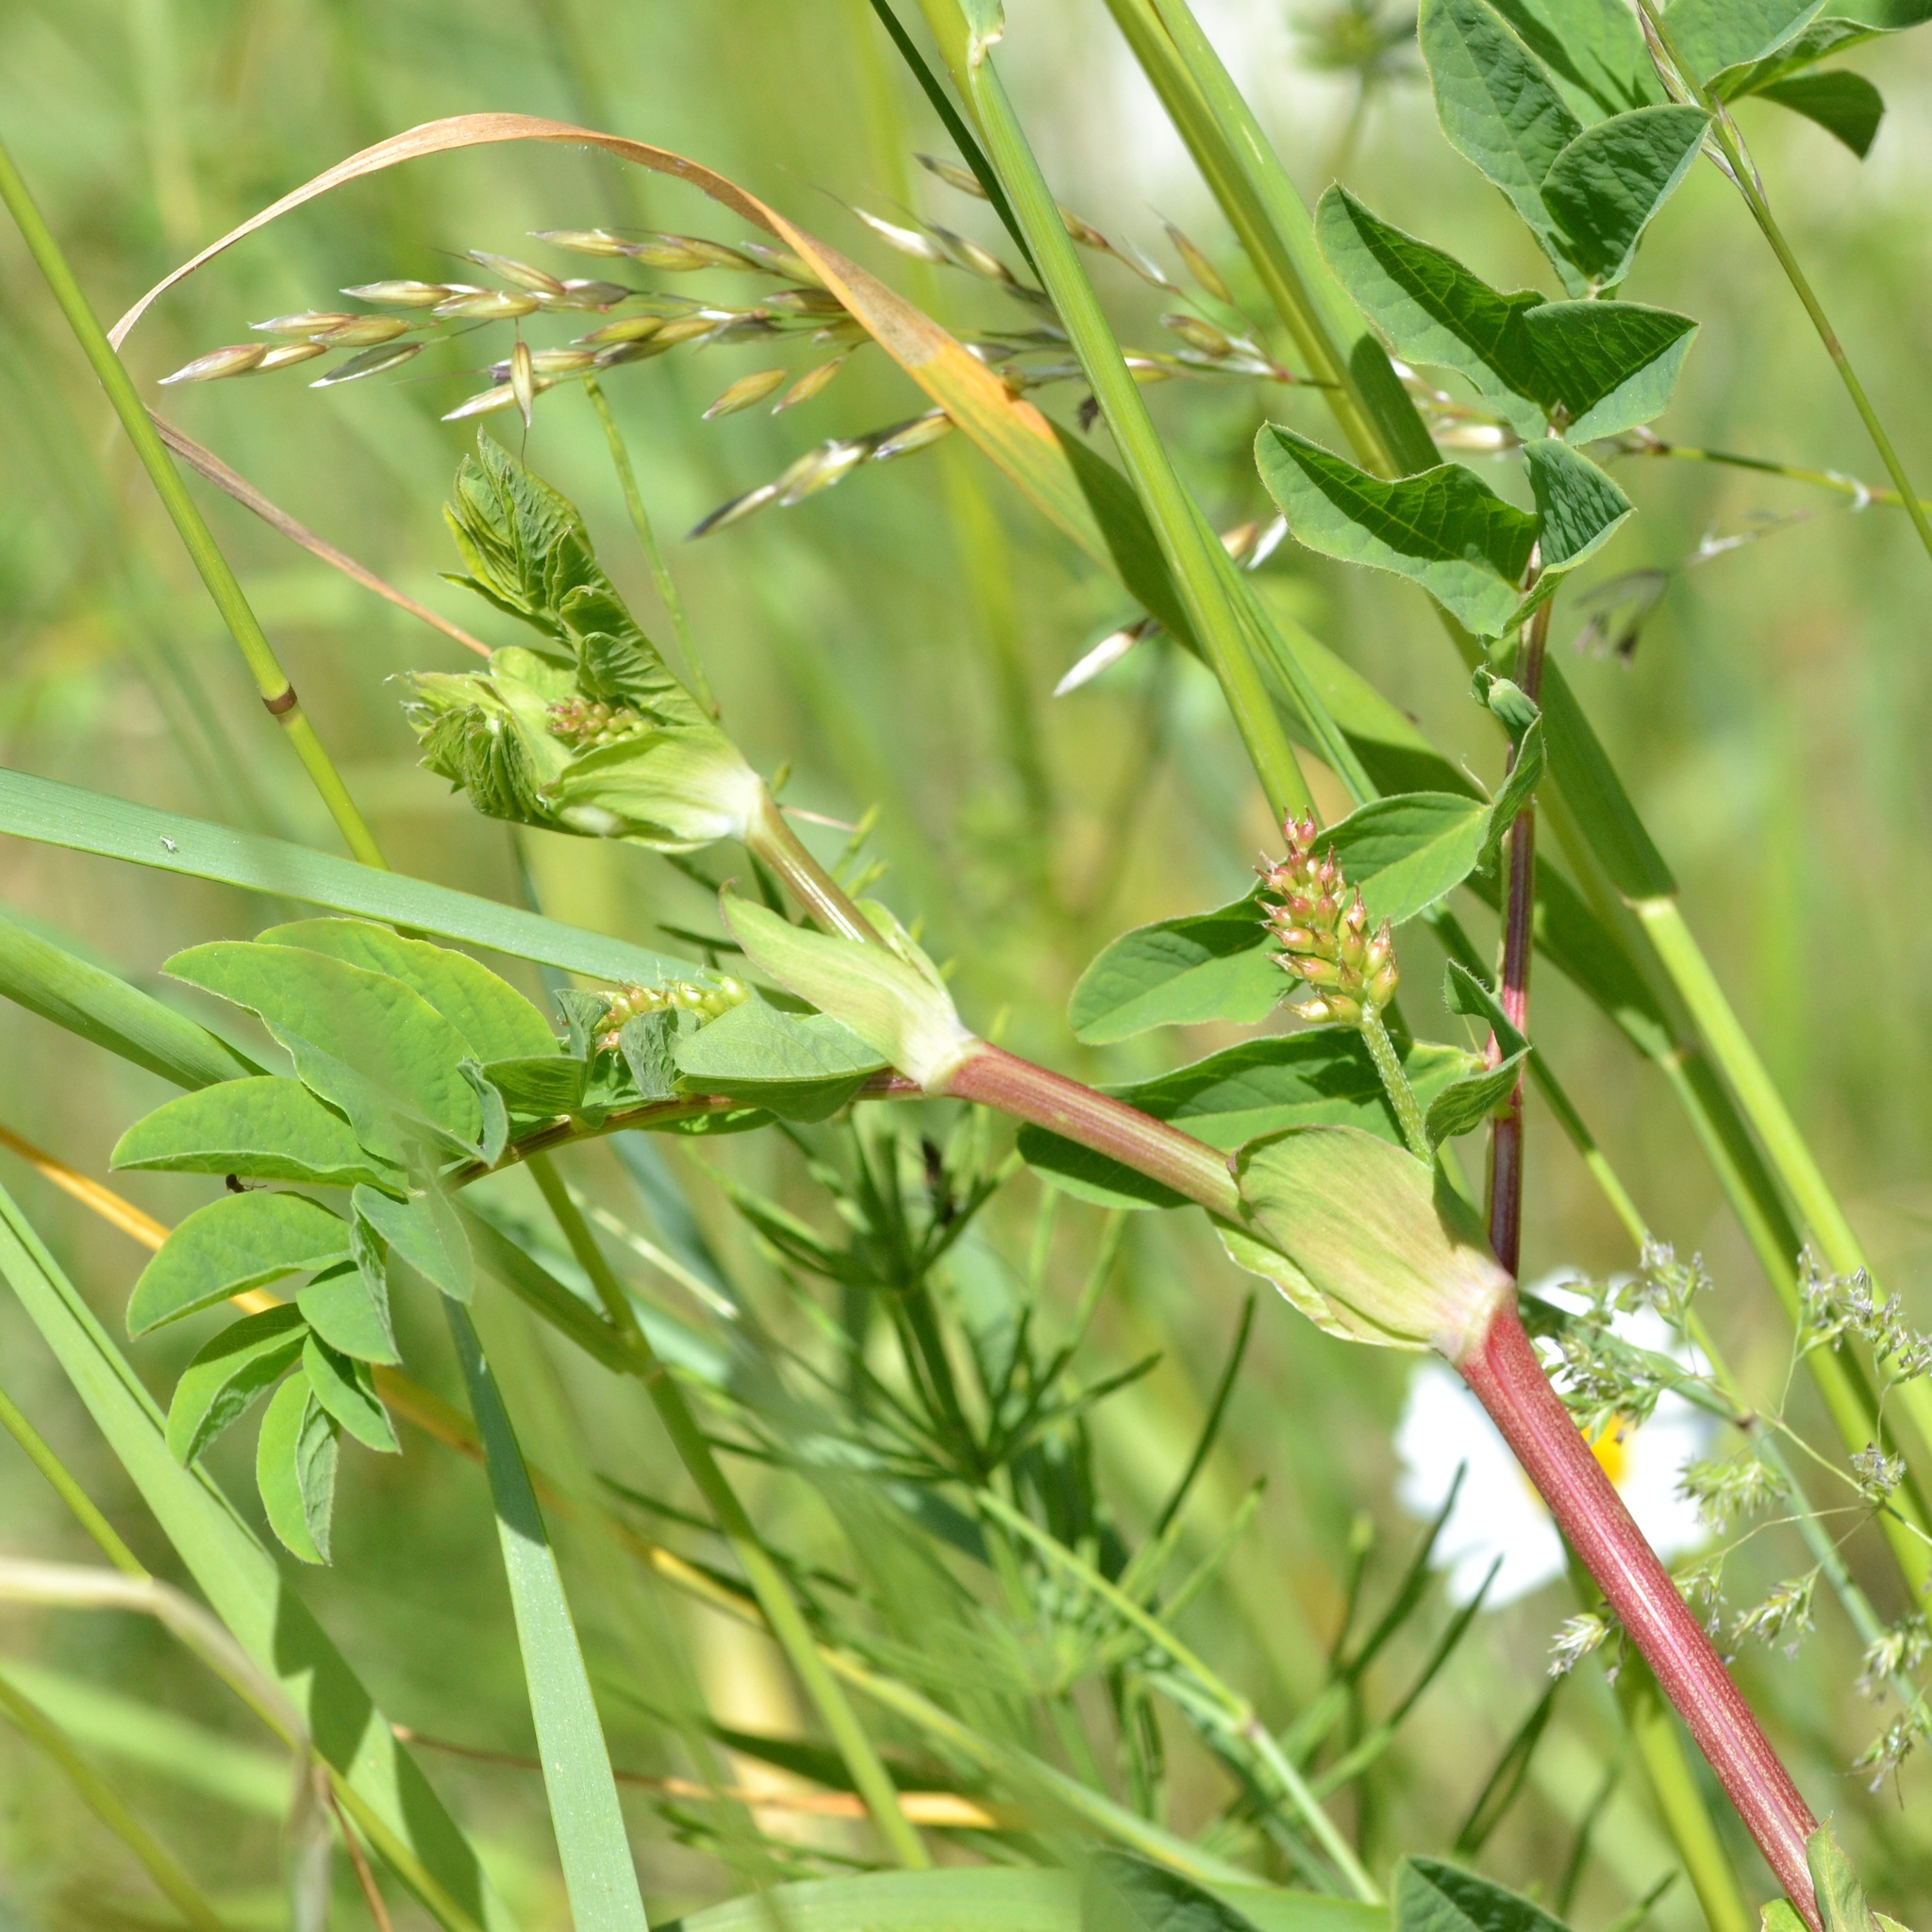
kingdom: Plantae
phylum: Tracheophyta
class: Magnoliopsida
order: Fabales
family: Fabaceae
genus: Astragalus
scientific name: Astragalus glycyphyllos
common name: Wild liquorice
